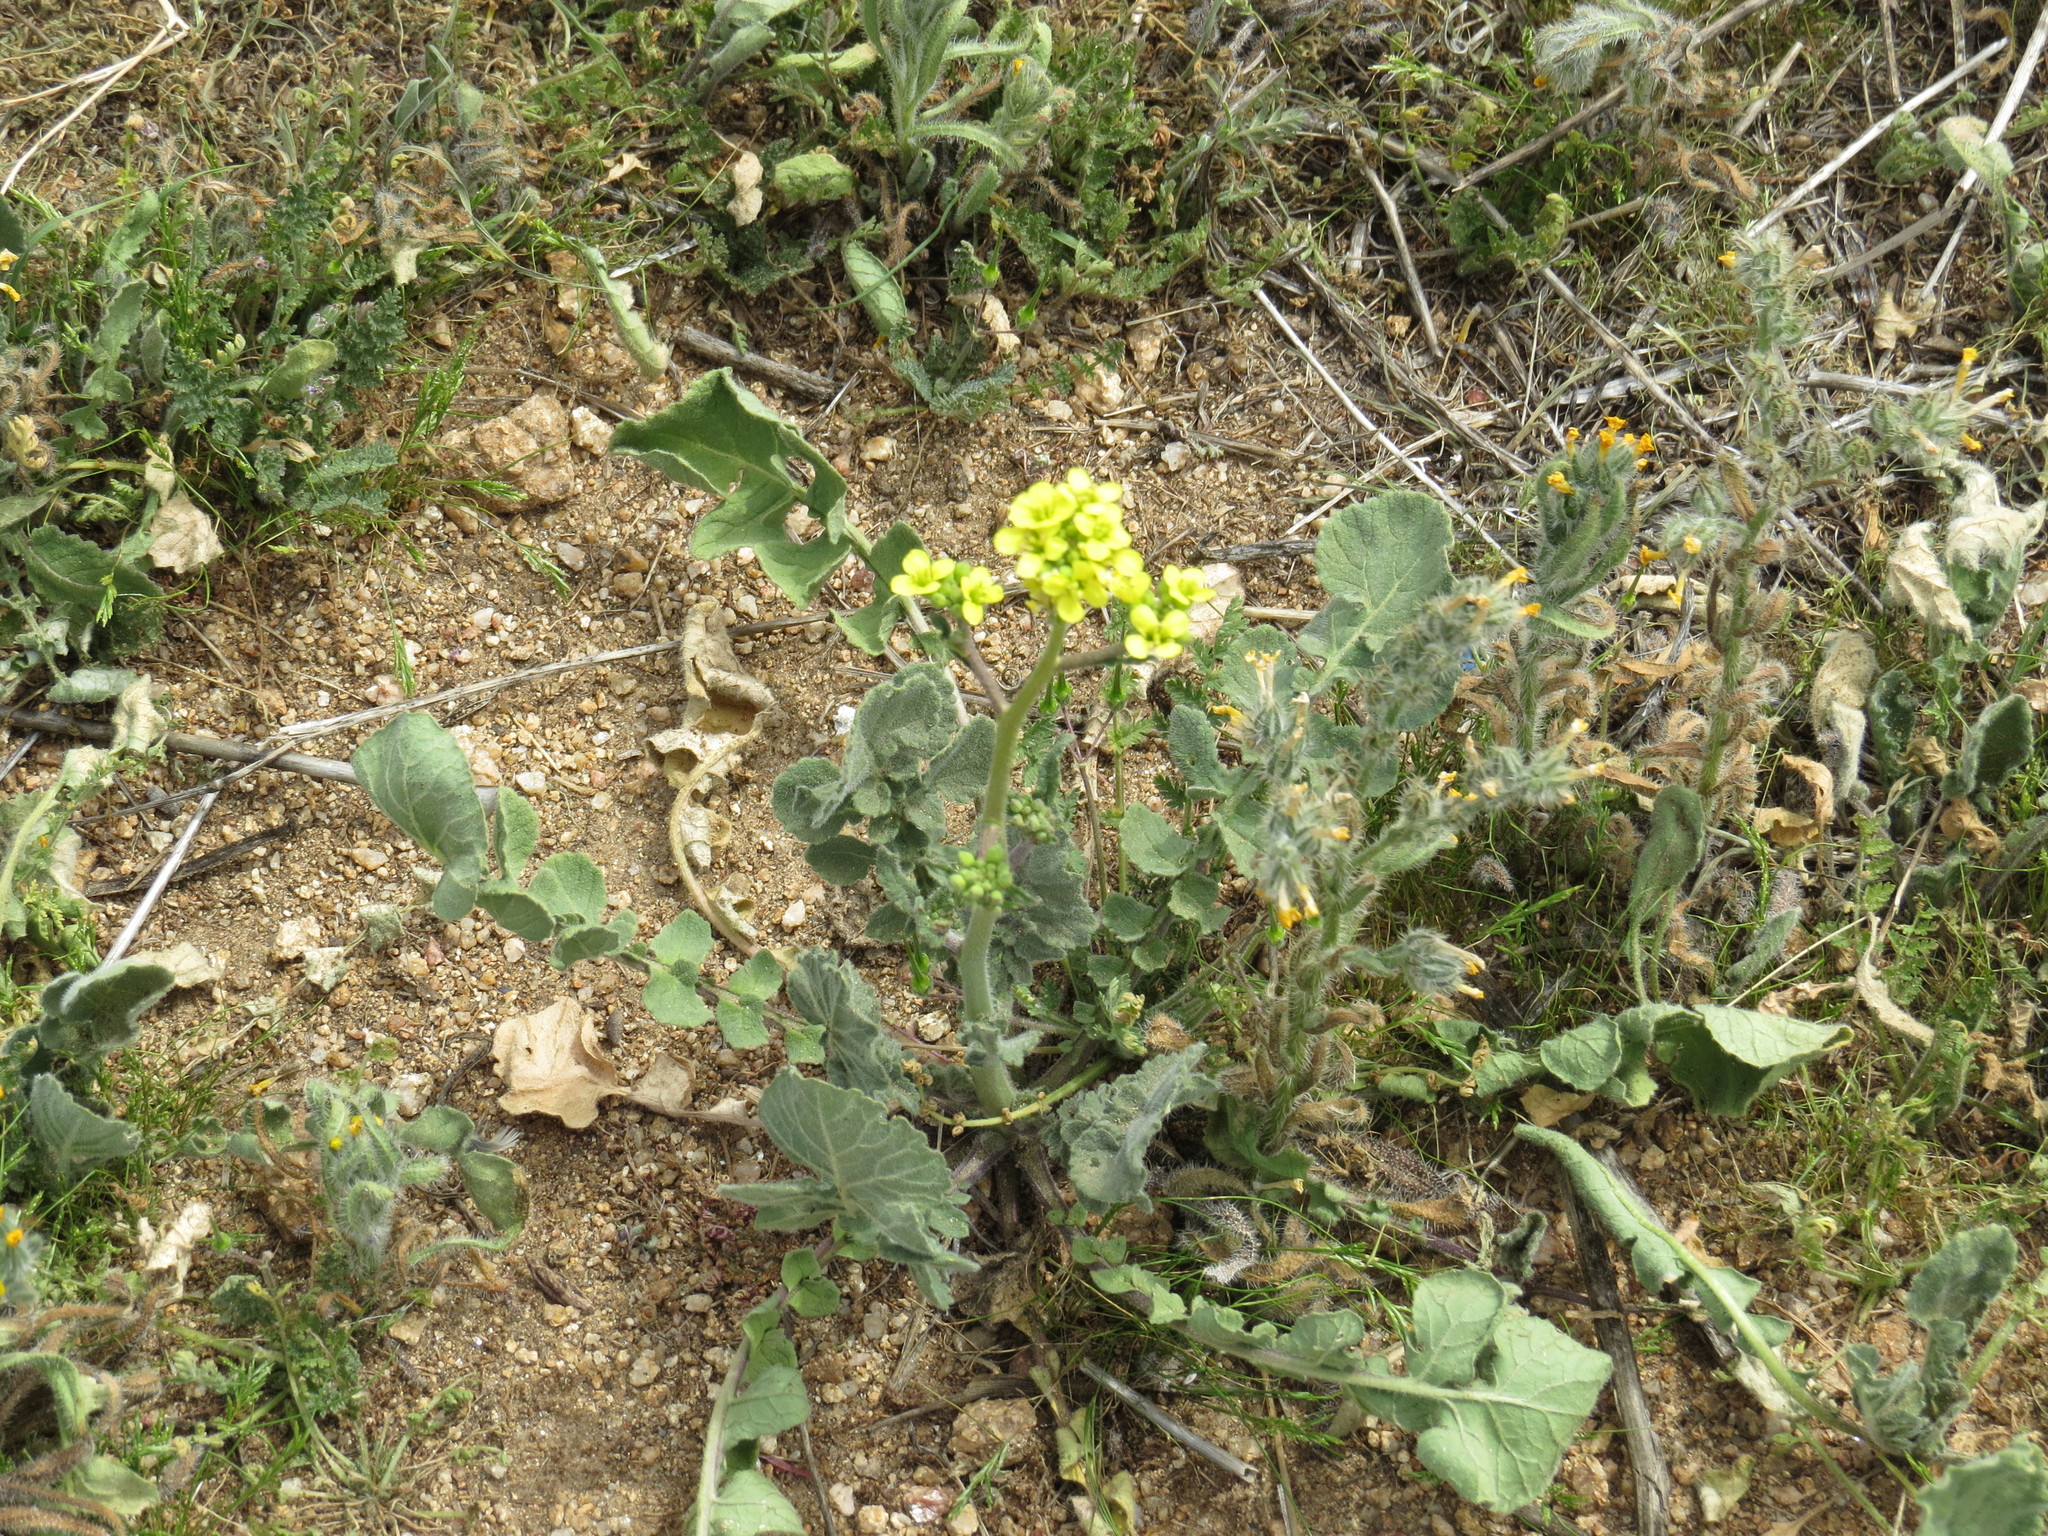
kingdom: Plantae
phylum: Tracheophyta
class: Magnoliopsida
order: Brassicales
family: Brassicaceae
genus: Hirschfeldia
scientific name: Hirschfeldia incana
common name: Hoary mustard
